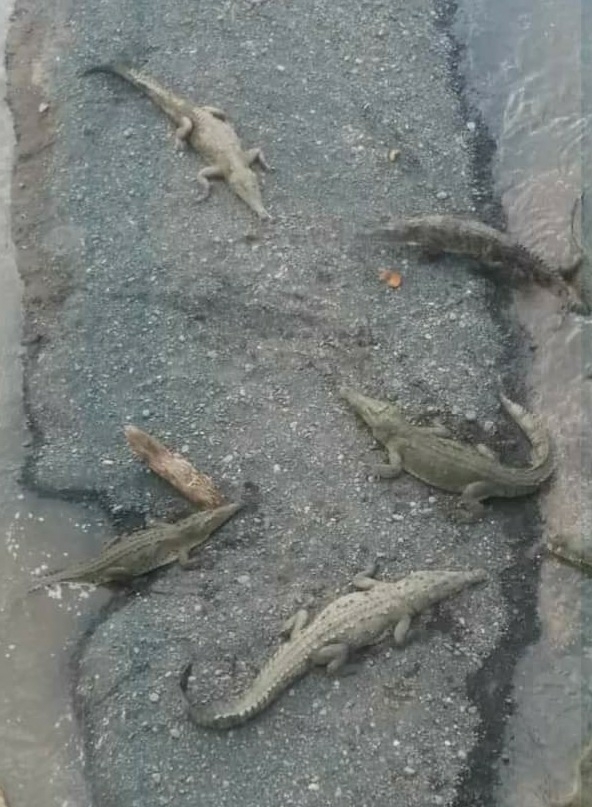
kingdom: Animalia
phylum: Chordata
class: Crocodylia
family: Crocodylidae
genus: Crocodylus
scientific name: Crocodylus acutus
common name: American crocodile
